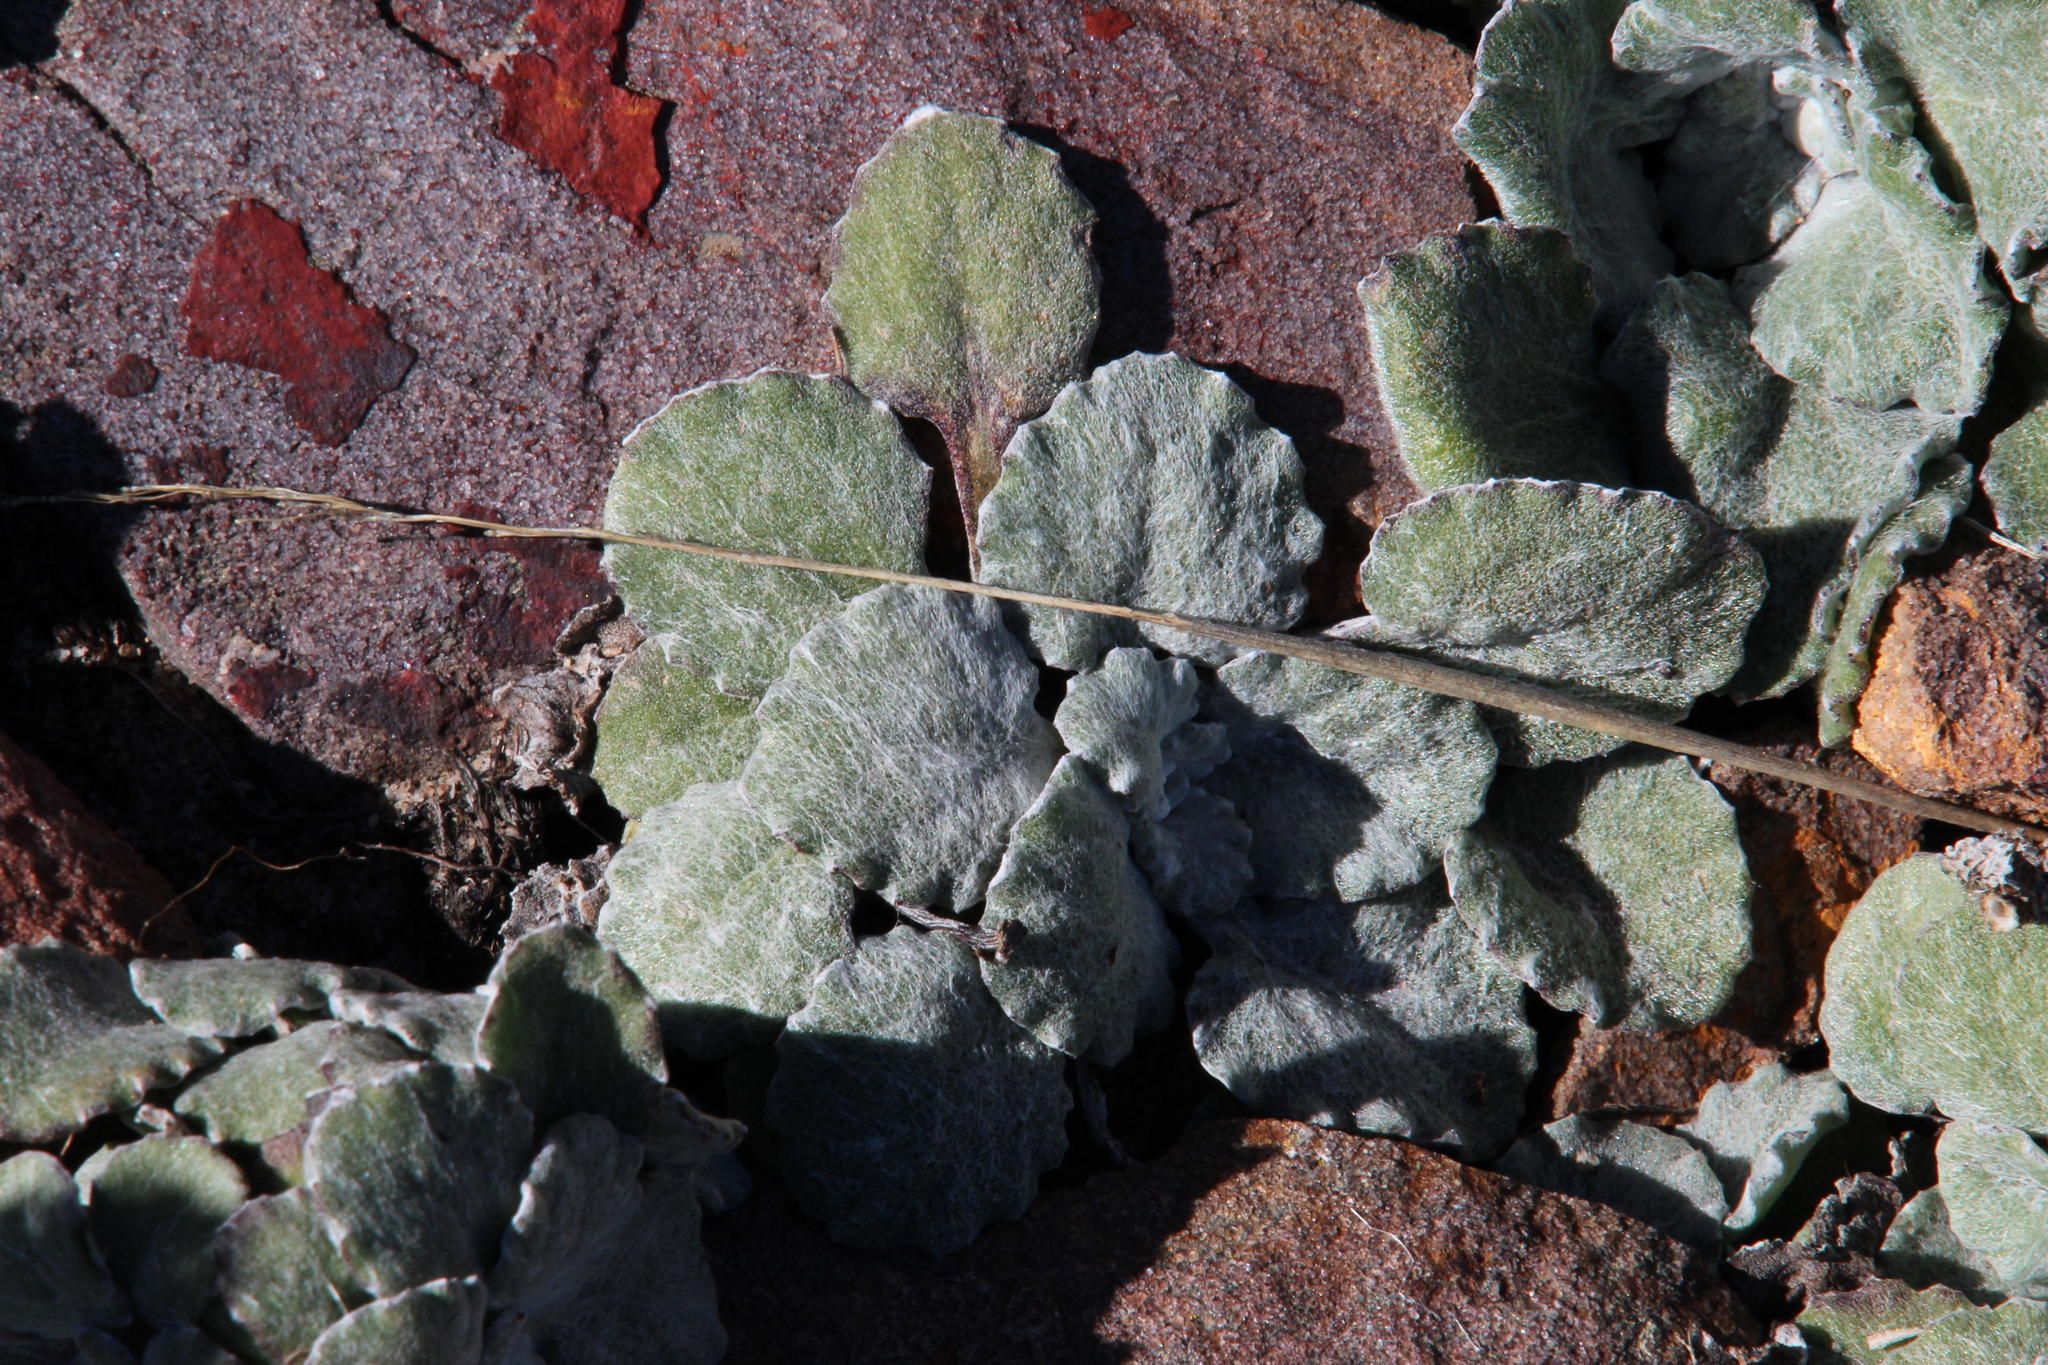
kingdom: Plantae
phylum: Tracheophyta
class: Magnoliopsida
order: Asterales
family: Asteraceae
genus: Arctotis
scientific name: Arctotis rotundifolia
